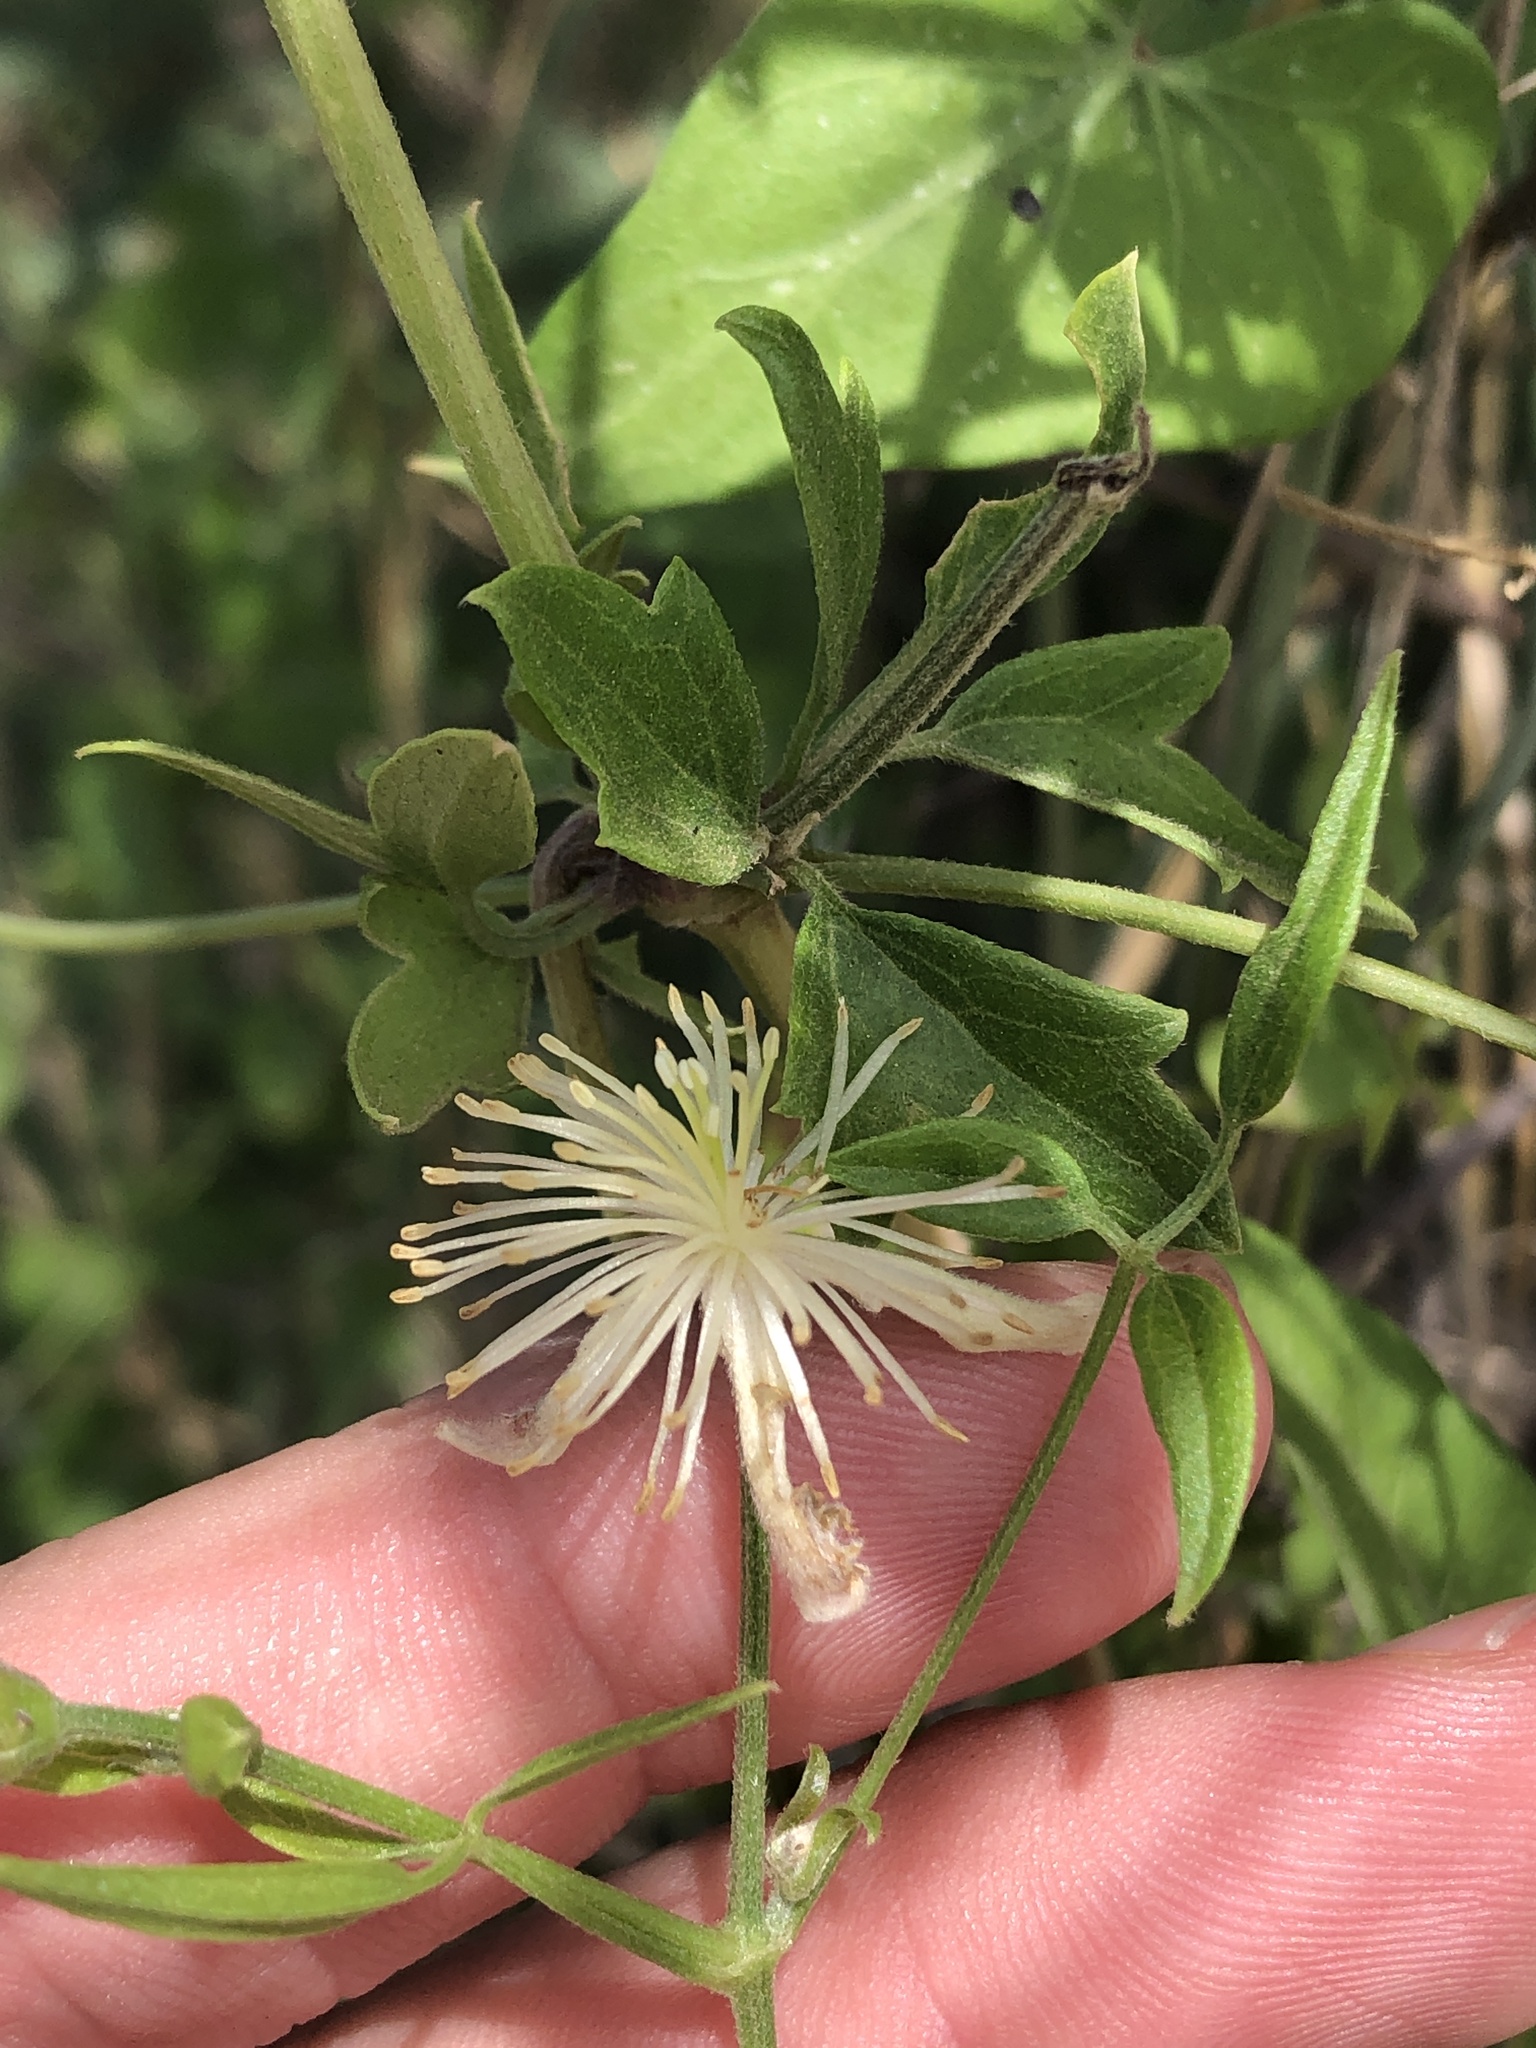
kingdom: Plantae
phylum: Tracheophyta
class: Magnoliopsida
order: Ranunculales
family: Ranunculaceae
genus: Clematis
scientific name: Clematis drummondii
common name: Texas virgin's bower
